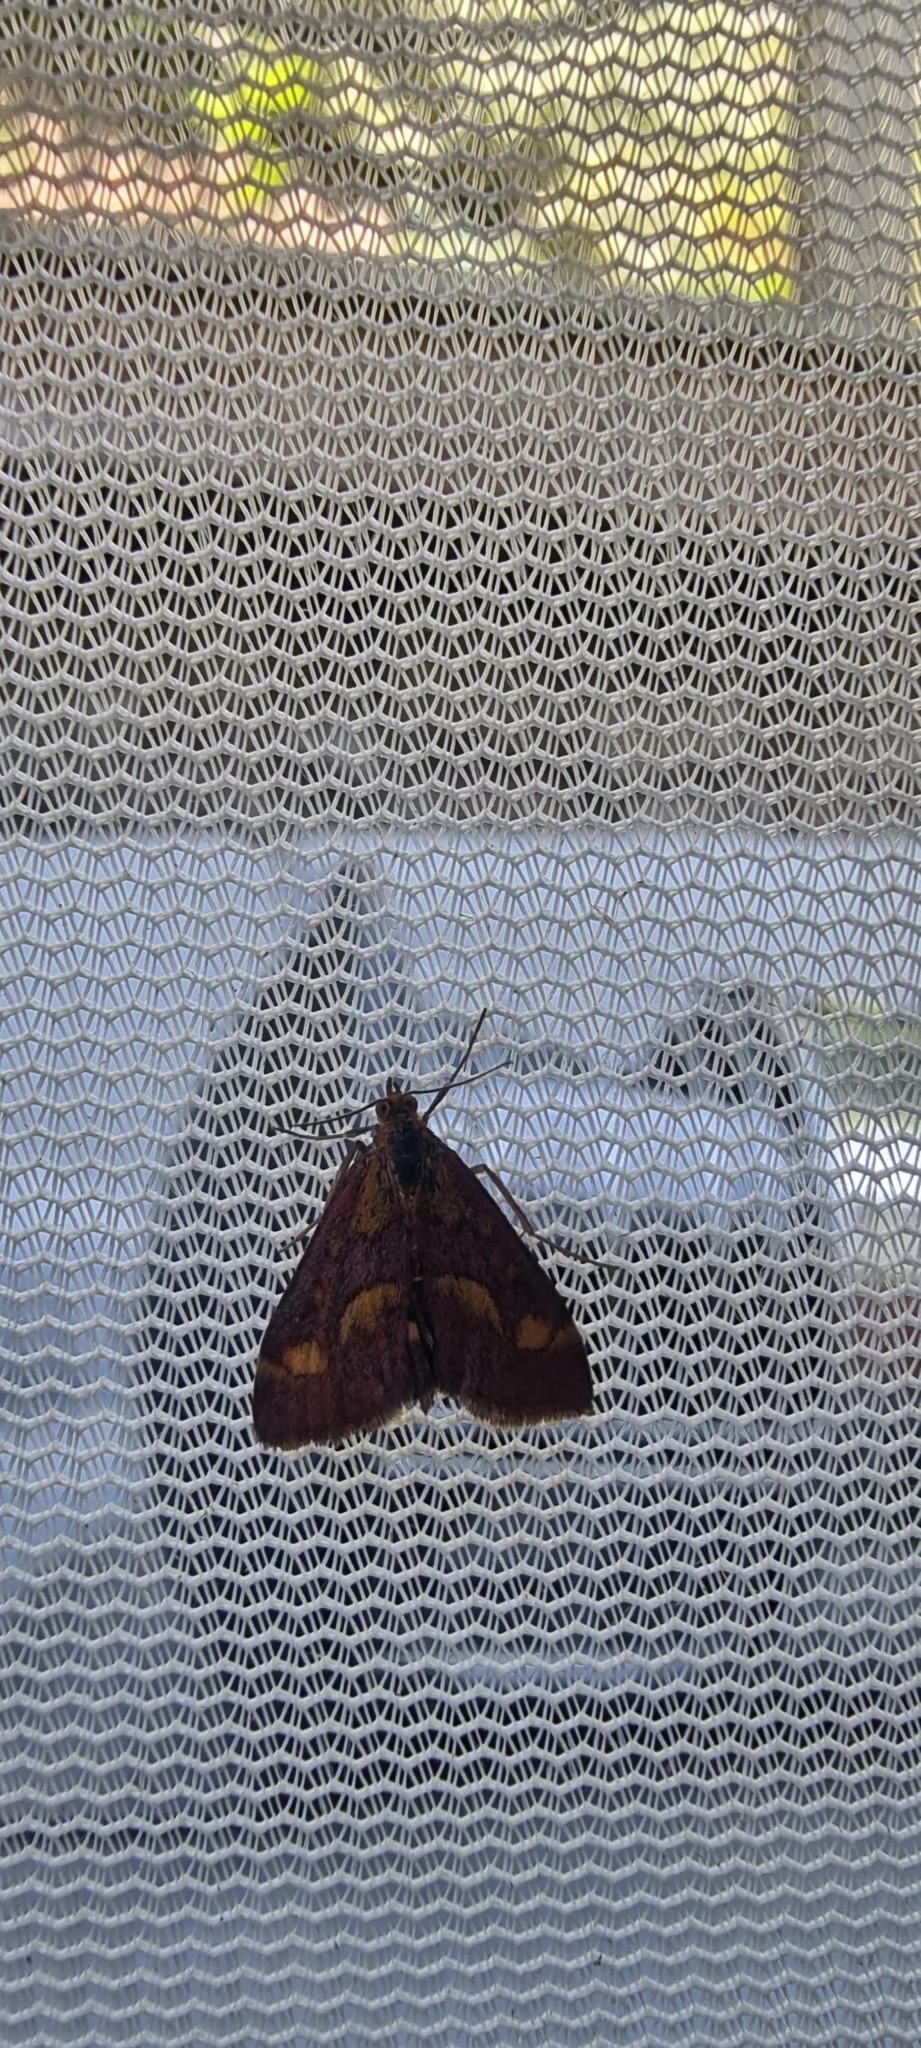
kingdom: Animalia
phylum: Arthropoda
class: Insecta
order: Lepidoptera
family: Crambidae
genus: Pyrausta
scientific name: Pyrausta purpuralis
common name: Common purple & gold
